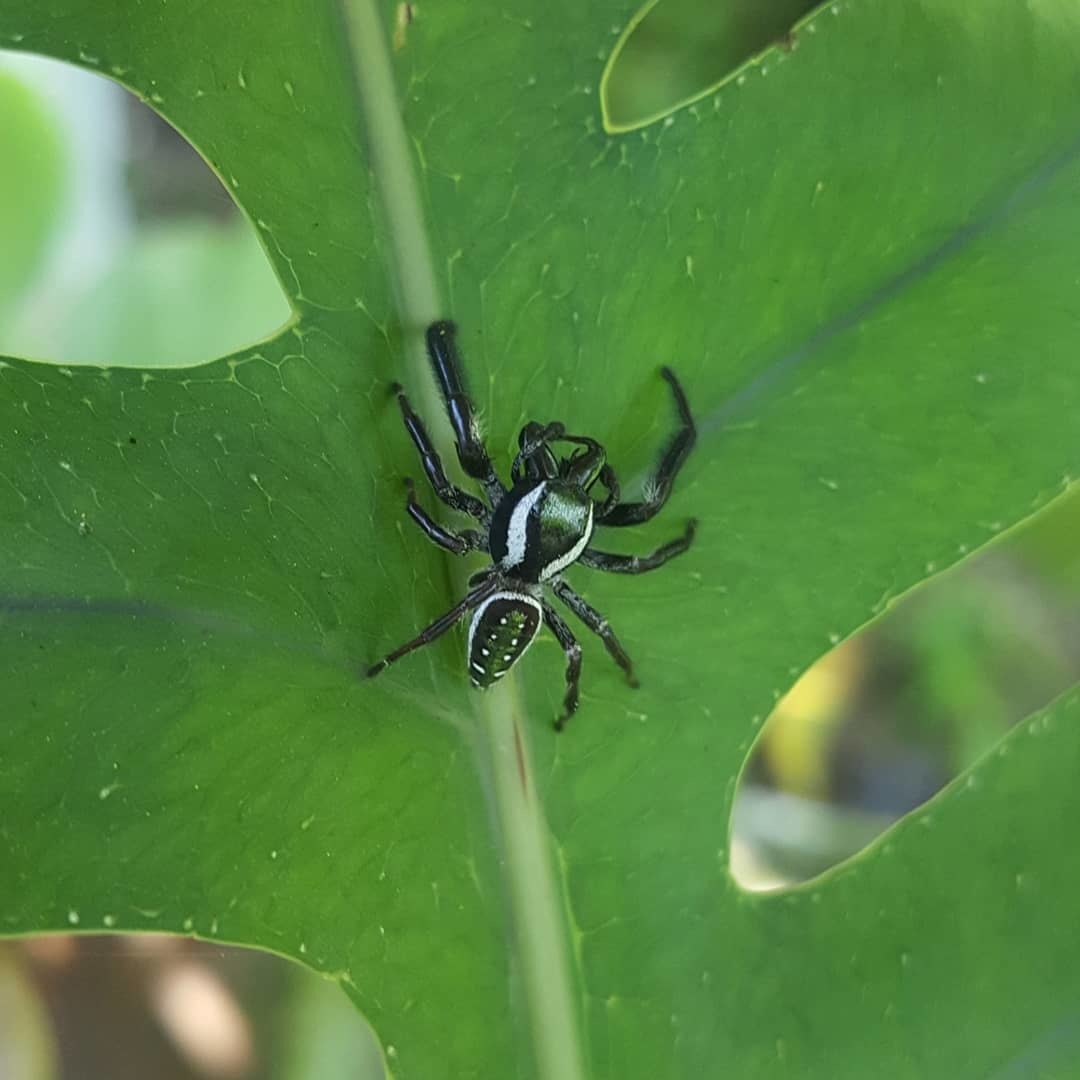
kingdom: Animalia
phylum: Arthropoda
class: Arachnida
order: Araneae
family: Salticidae
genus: Paraphidippus
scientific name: Paraphidippus aurantius
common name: Jumping spiders
